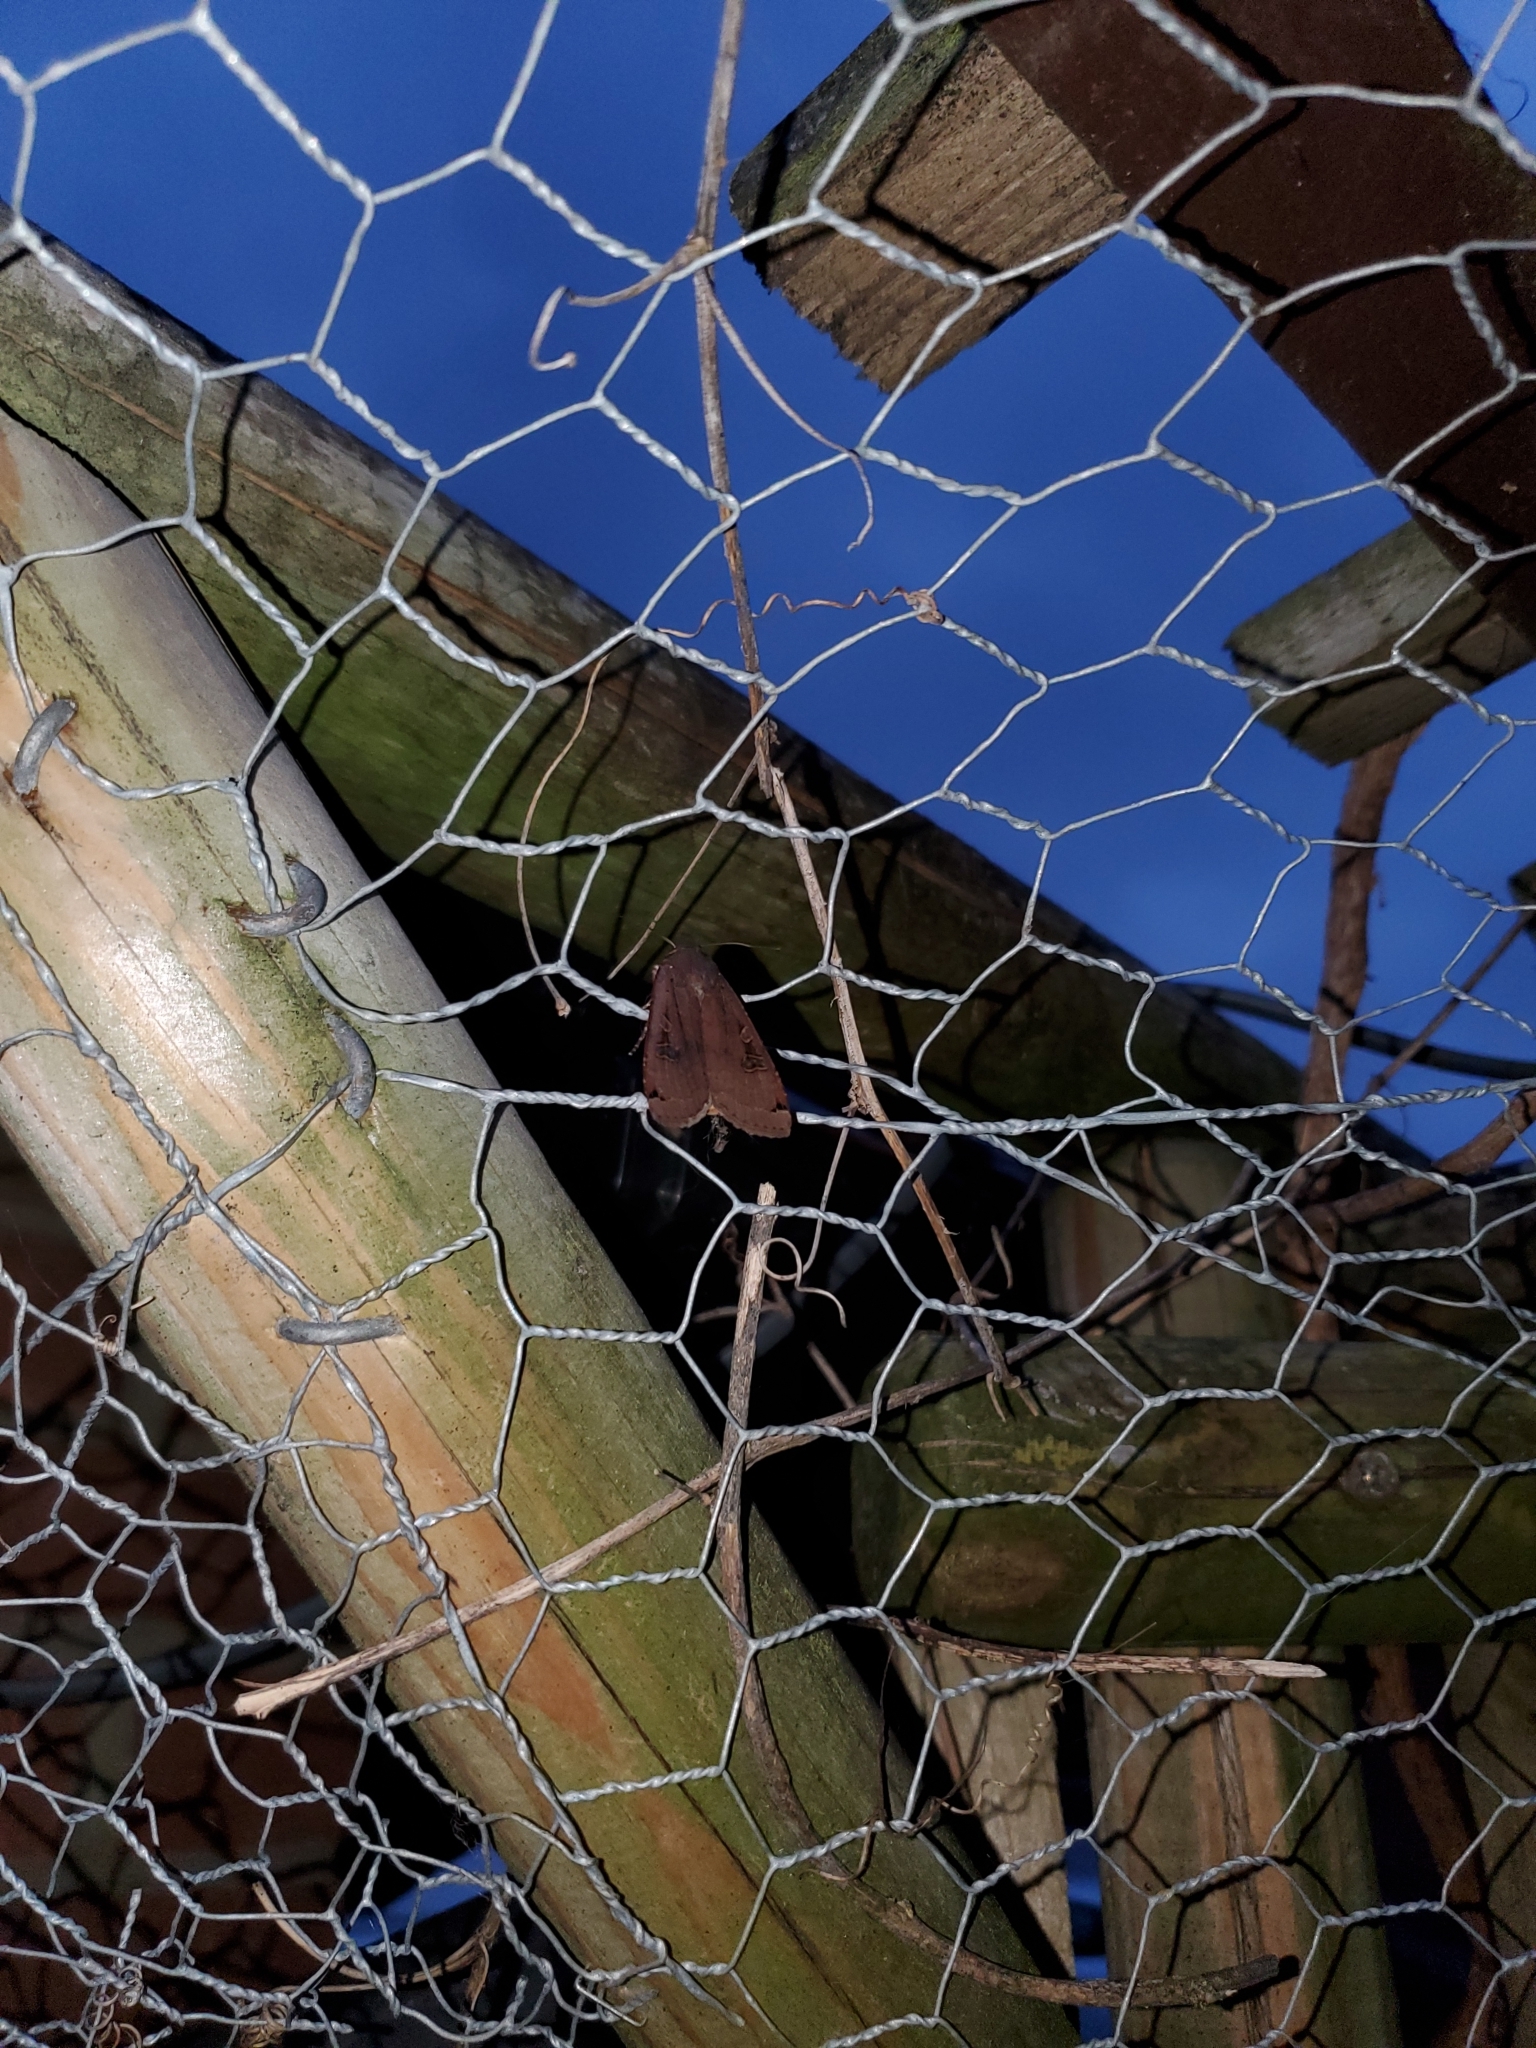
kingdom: Animalia
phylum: Arthropoda
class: Insecta
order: Lepidoptera
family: Noctuidae
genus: Noctua
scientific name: Noctua pronuba
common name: Large yellow underwing
